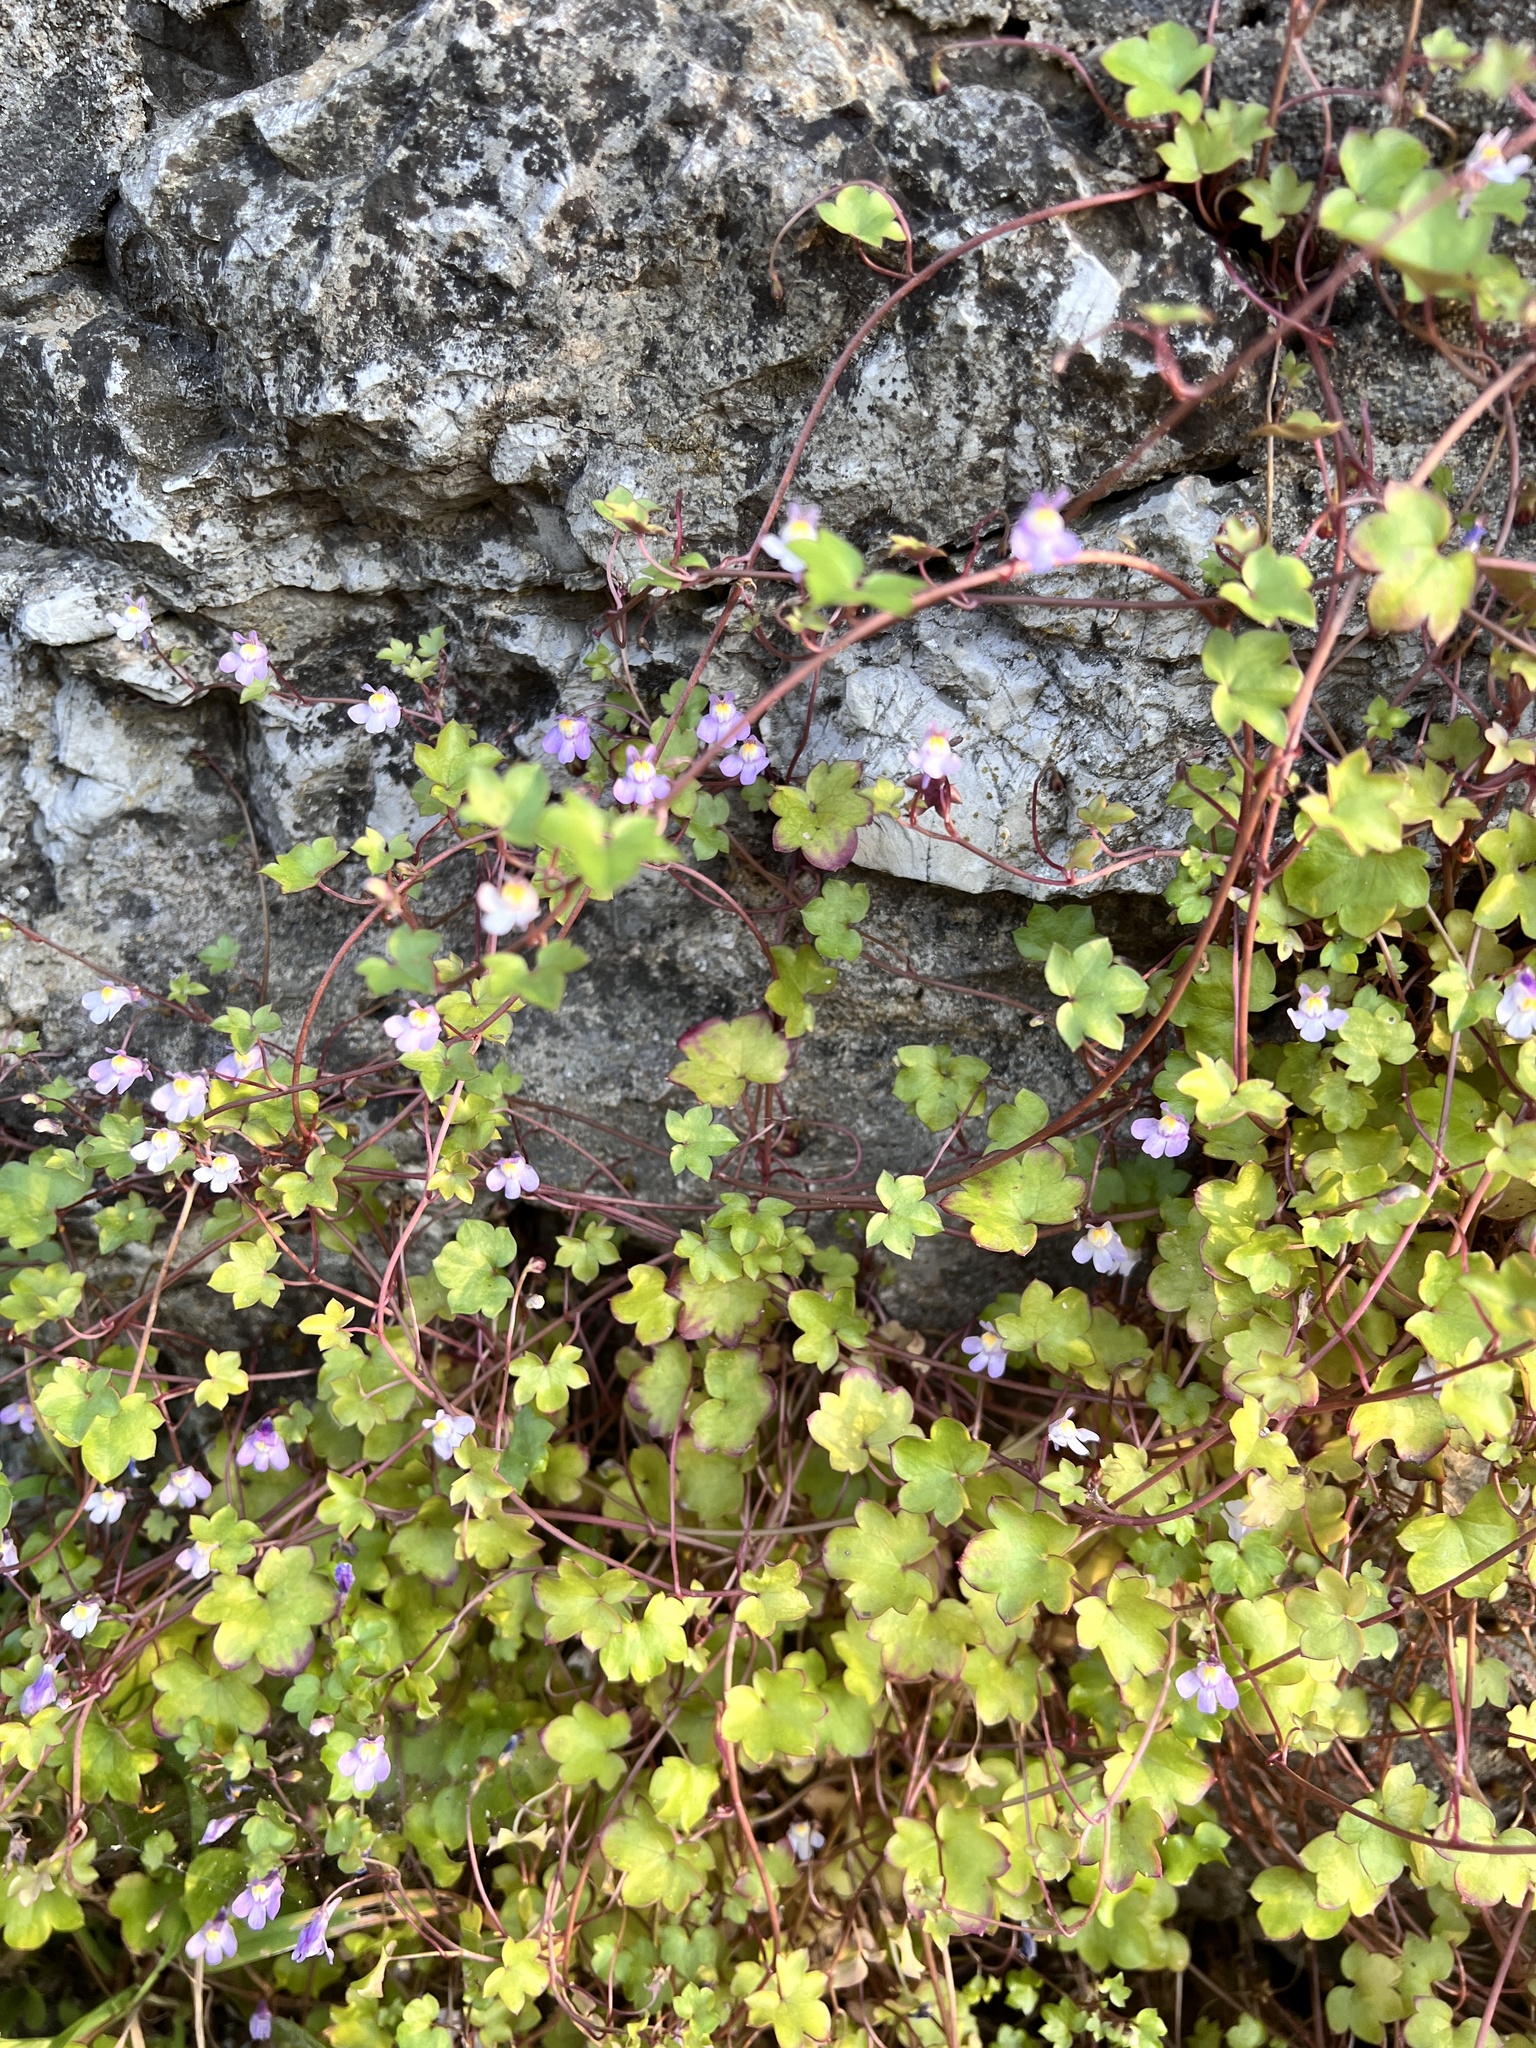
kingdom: Plantae
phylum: Tracheophyta
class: Magnoliopsida
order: Lamiales
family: Plantaginaceae
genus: Cymbalaria
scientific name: Cymbalaria muralis
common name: Ivy-leaved toadflax
